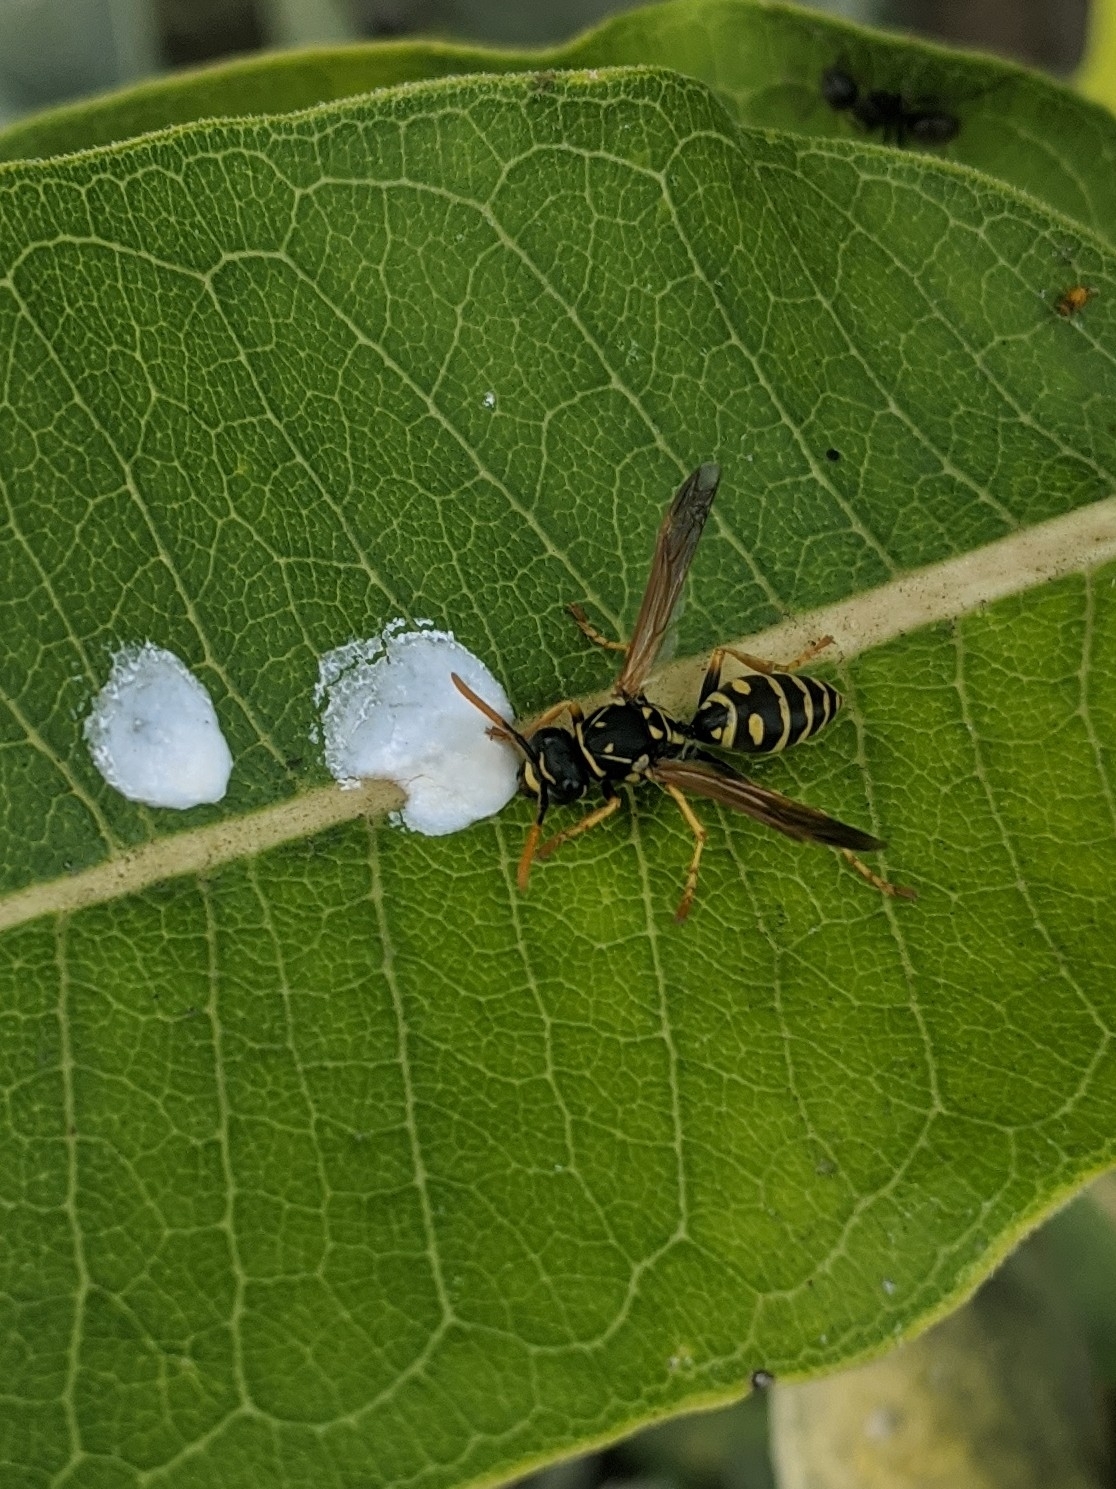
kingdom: Animalia
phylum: Arthropoda
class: Insecta
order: Hymenoptera
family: Eumenidae
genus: Polistes
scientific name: Polistes dominula
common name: Paper wasp
